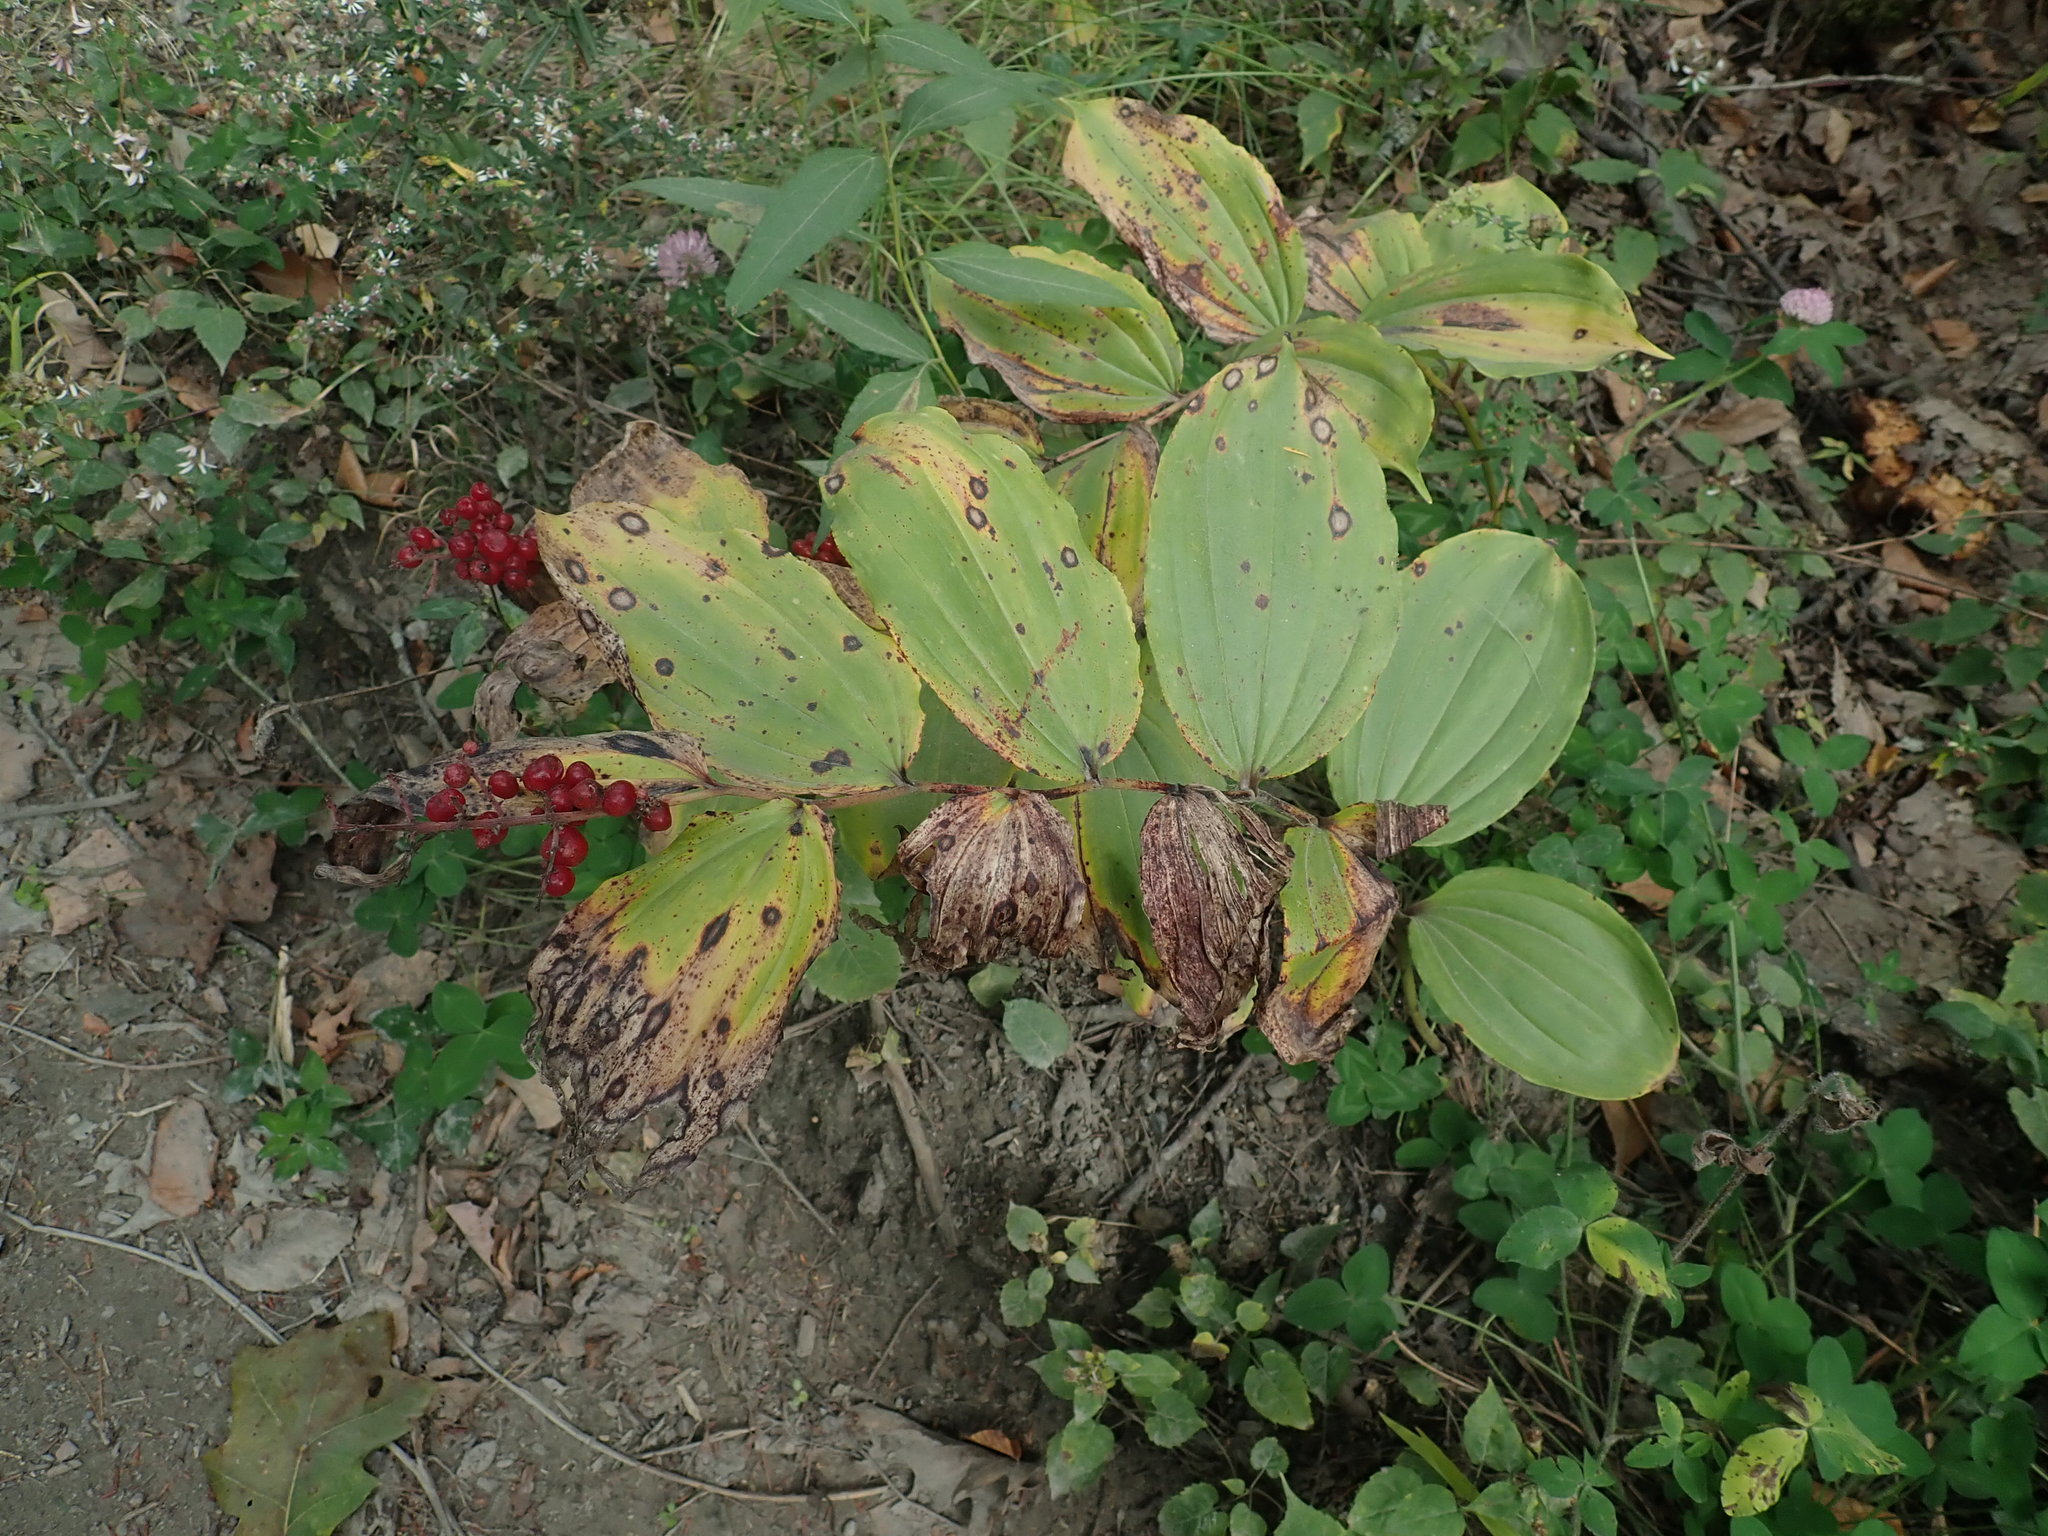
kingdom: Plantae
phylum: Tracheophyta
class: Liliopsida
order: Asparagales
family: Asparagaceae
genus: Maianthemum
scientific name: Maianthemum racemosum
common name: False spikenard
